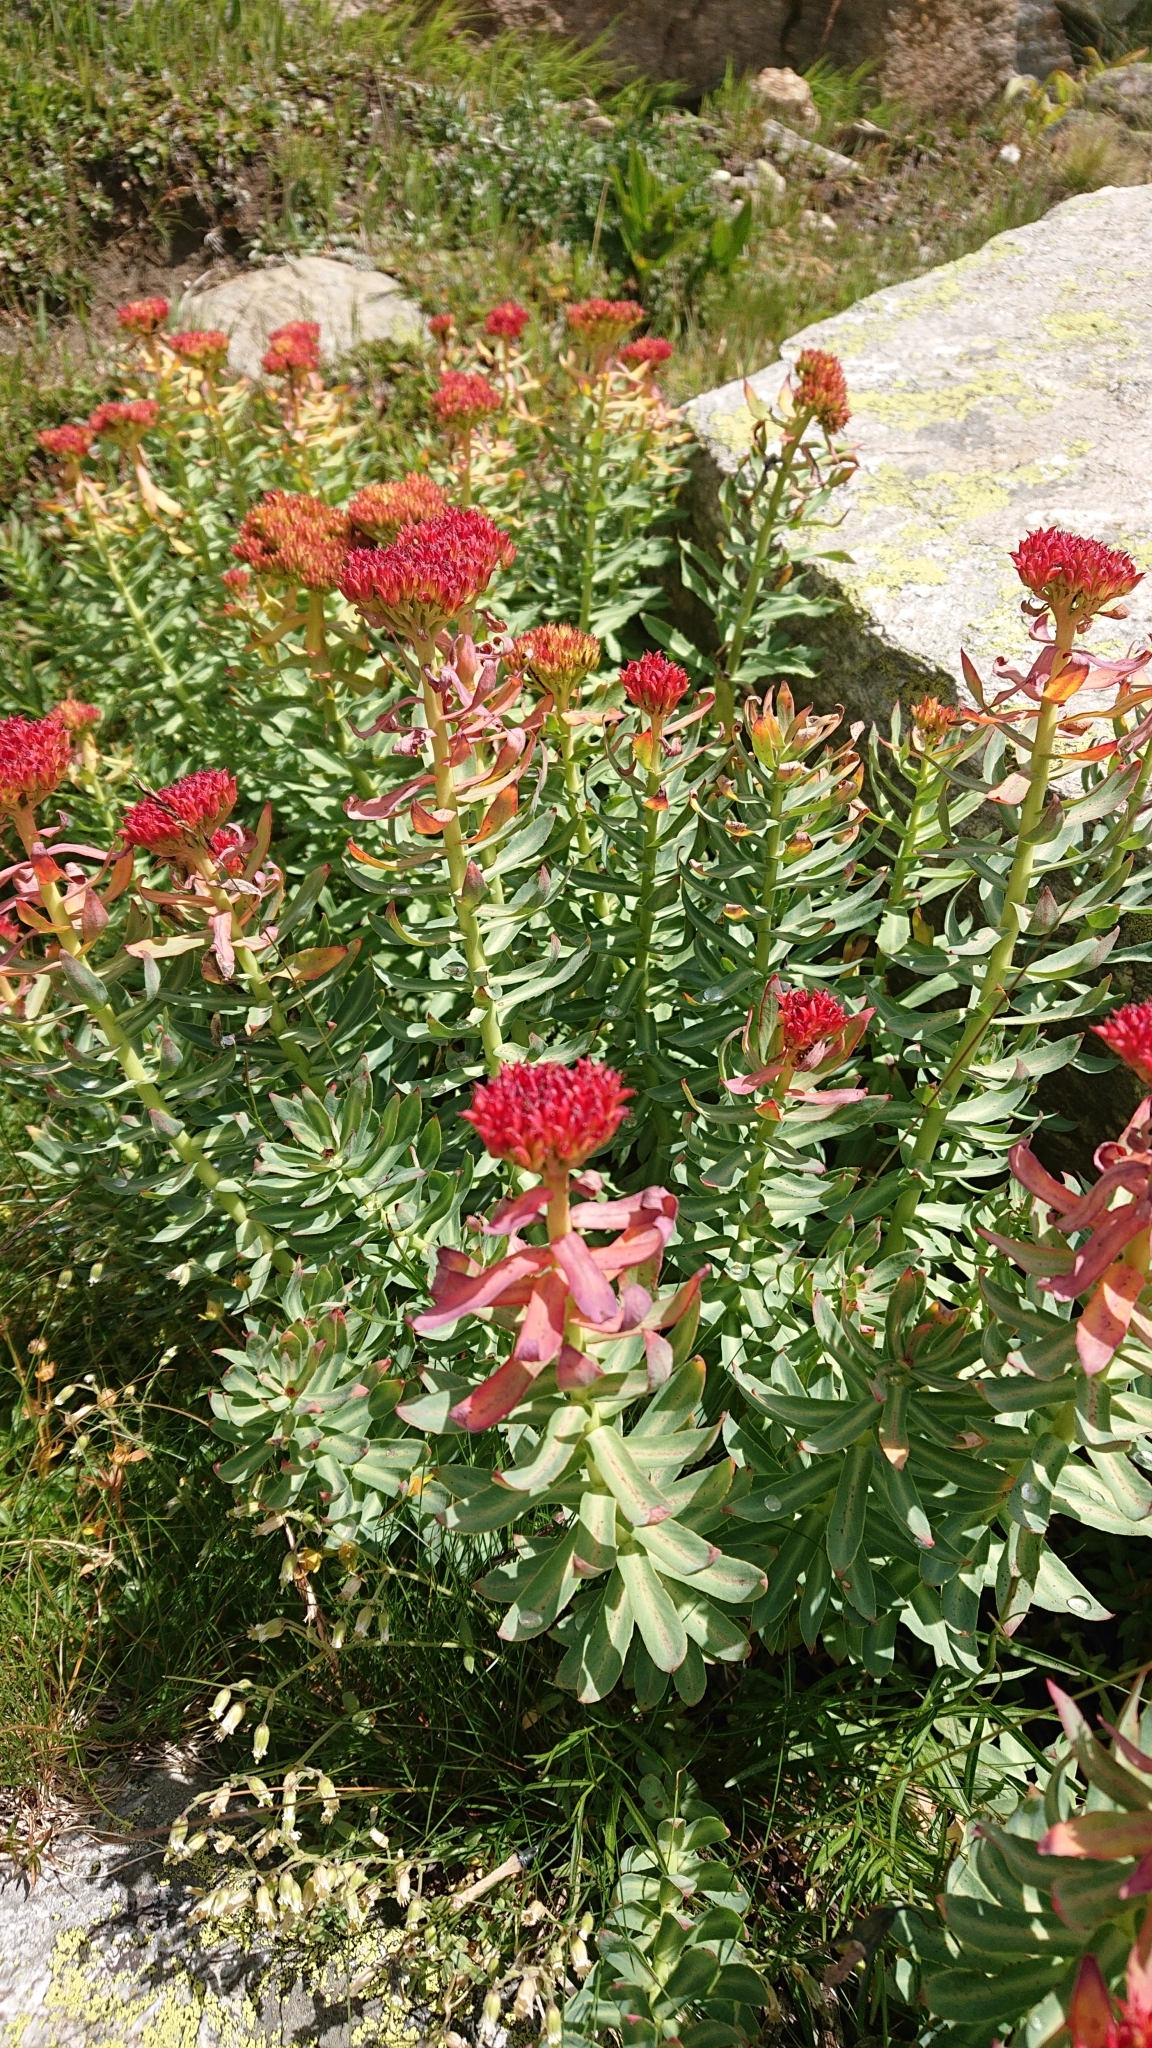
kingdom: Plantae
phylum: Tracheophyta
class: Magnoliopsida
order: Saxifragales
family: Crassulaceae
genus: Rhodiola
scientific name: Rhodiola rosea
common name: Roseroot
